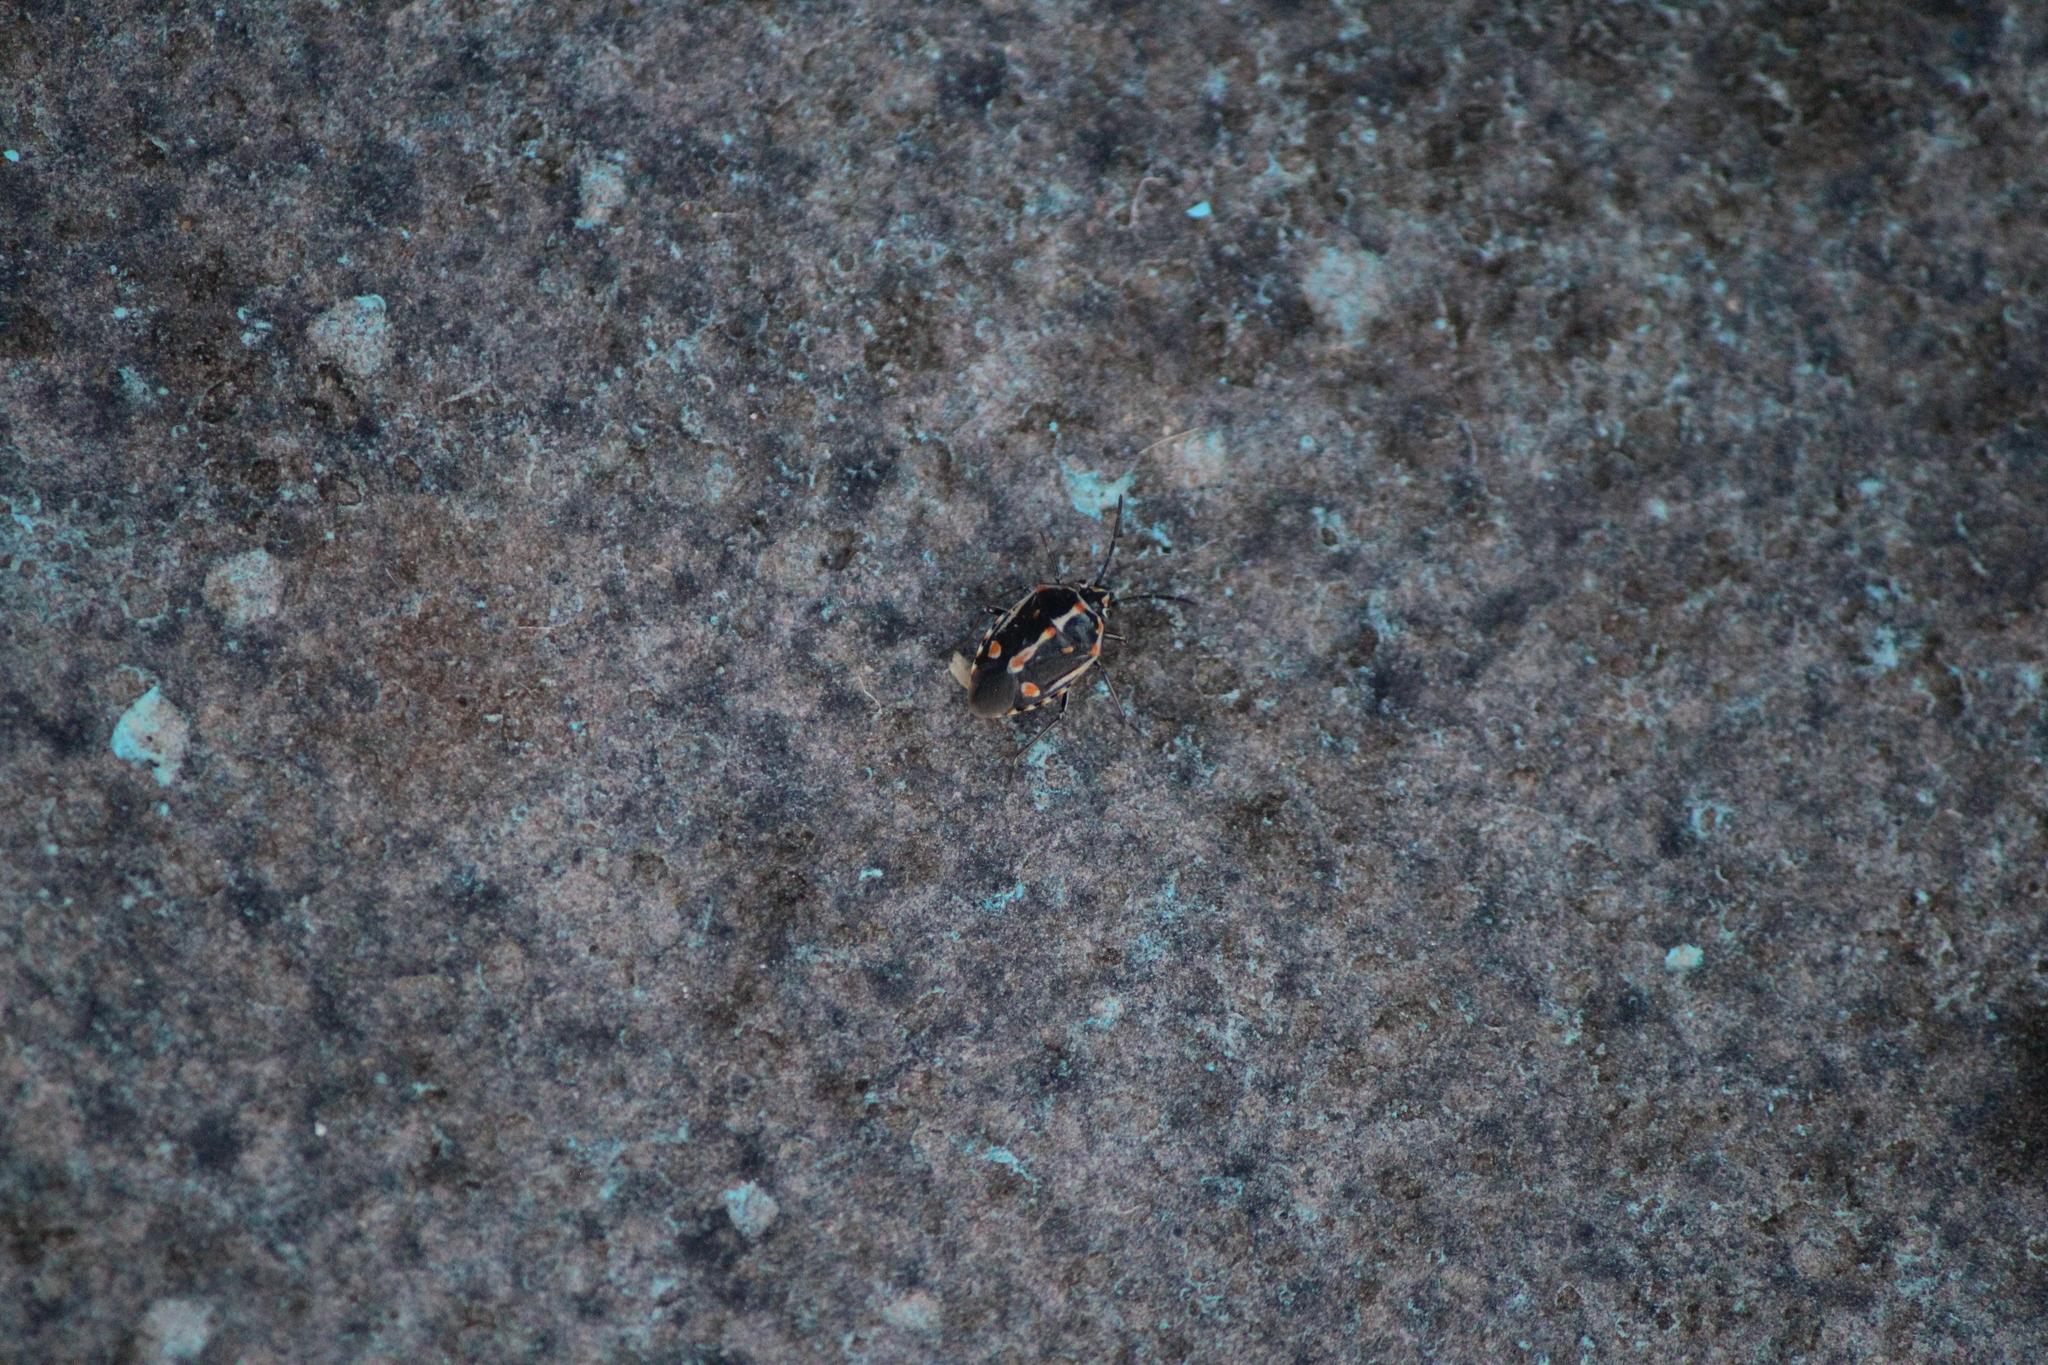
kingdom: Animalia
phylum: Arthropoda
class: Insecta
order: Hemiptera
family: Pentatomidae
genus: Bagrada
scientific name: Bagrada hilaris
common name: Bagrada bug
